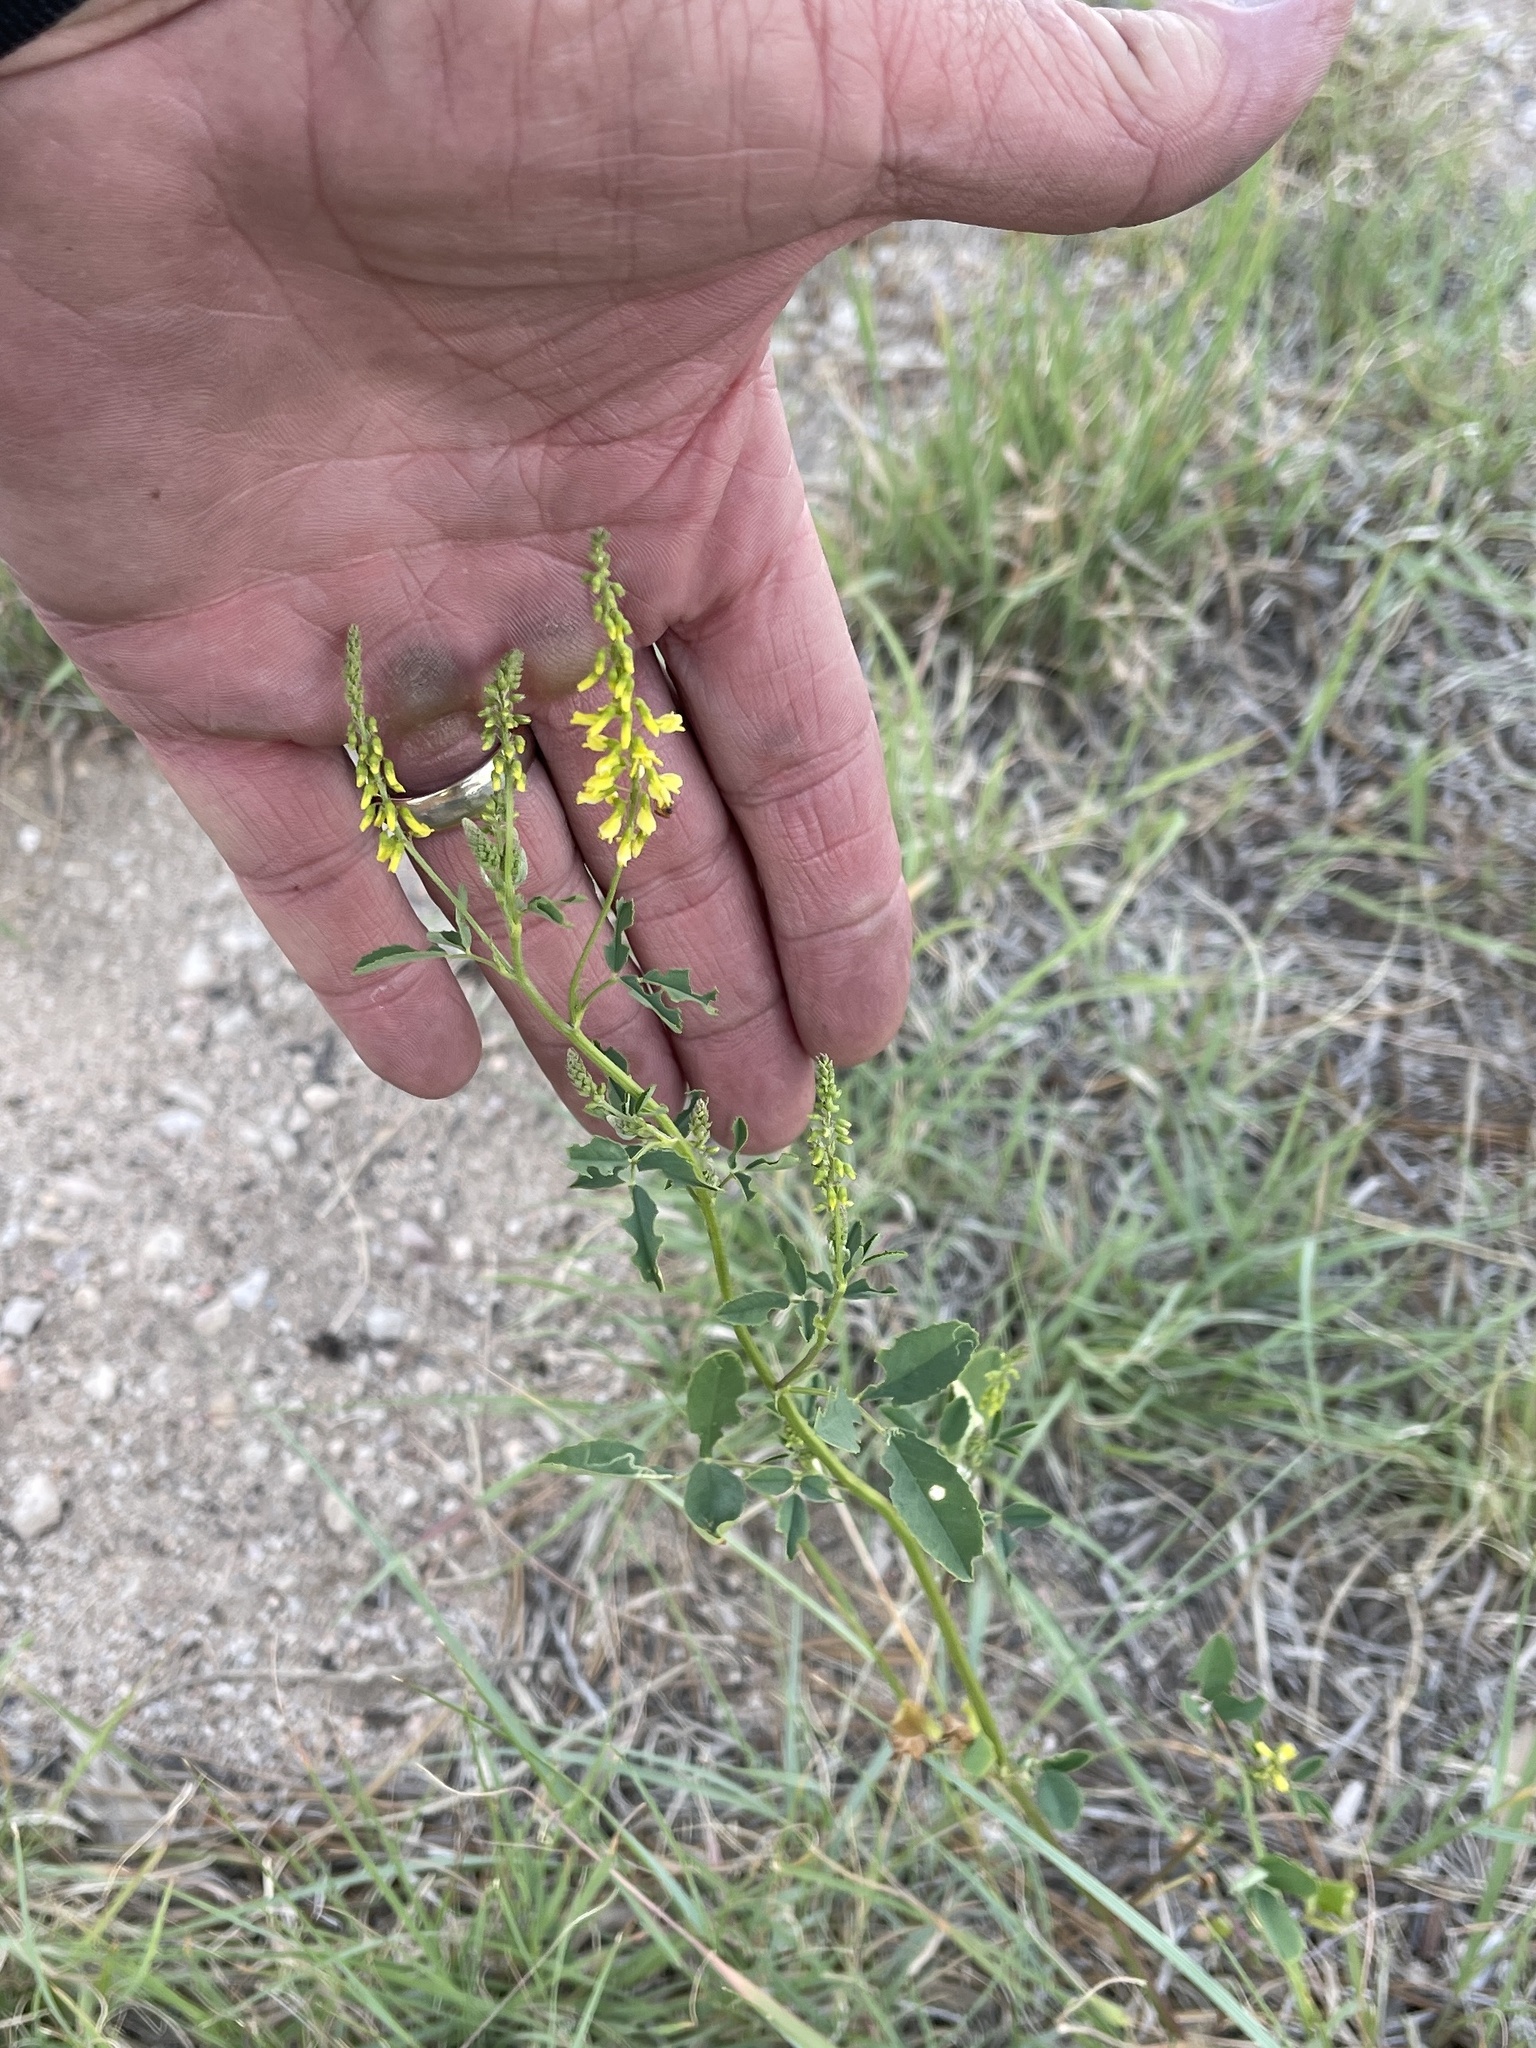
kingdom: Plantae
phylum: Tracheophyta
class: Magnoliopsida
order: Fabales
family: Fabaceae
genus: Melilotus
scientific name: Melilotus officinalis
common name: Sweetclover
